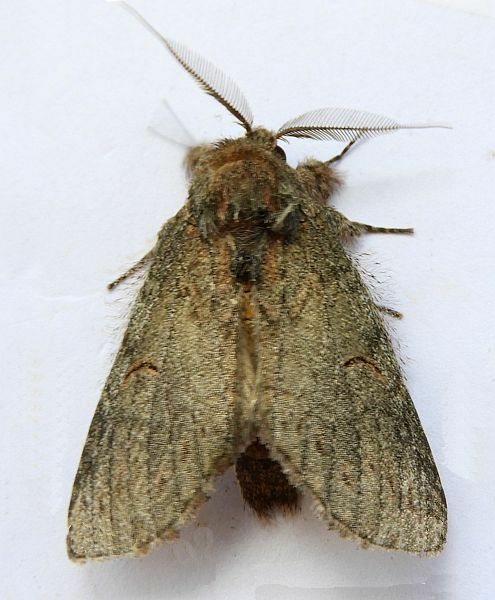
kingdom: Animalia
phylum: Arthropoda
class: Insecta
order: Lepidoptera
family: Notodontidae
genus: Disphragis
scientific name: Disphragis
